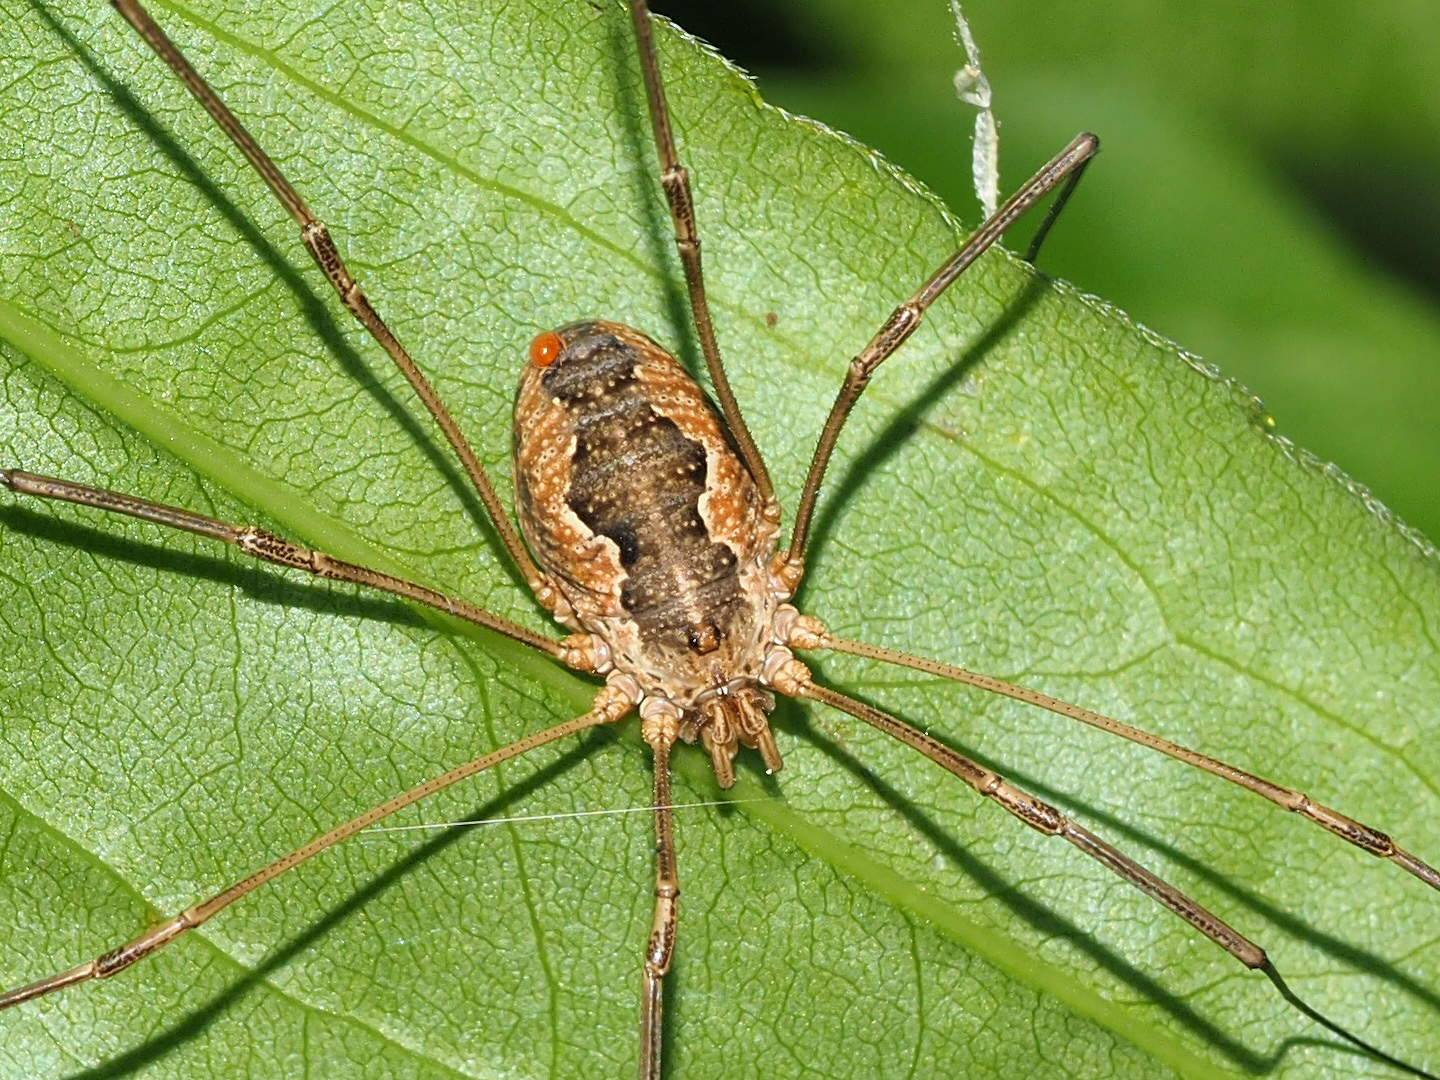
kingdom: Animalia
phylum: Arthropoda
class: Arachnida
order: Opiliones
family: Phalangiidae
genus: Phalangium
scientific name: Phalangium opilio
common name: Daddy longleg
